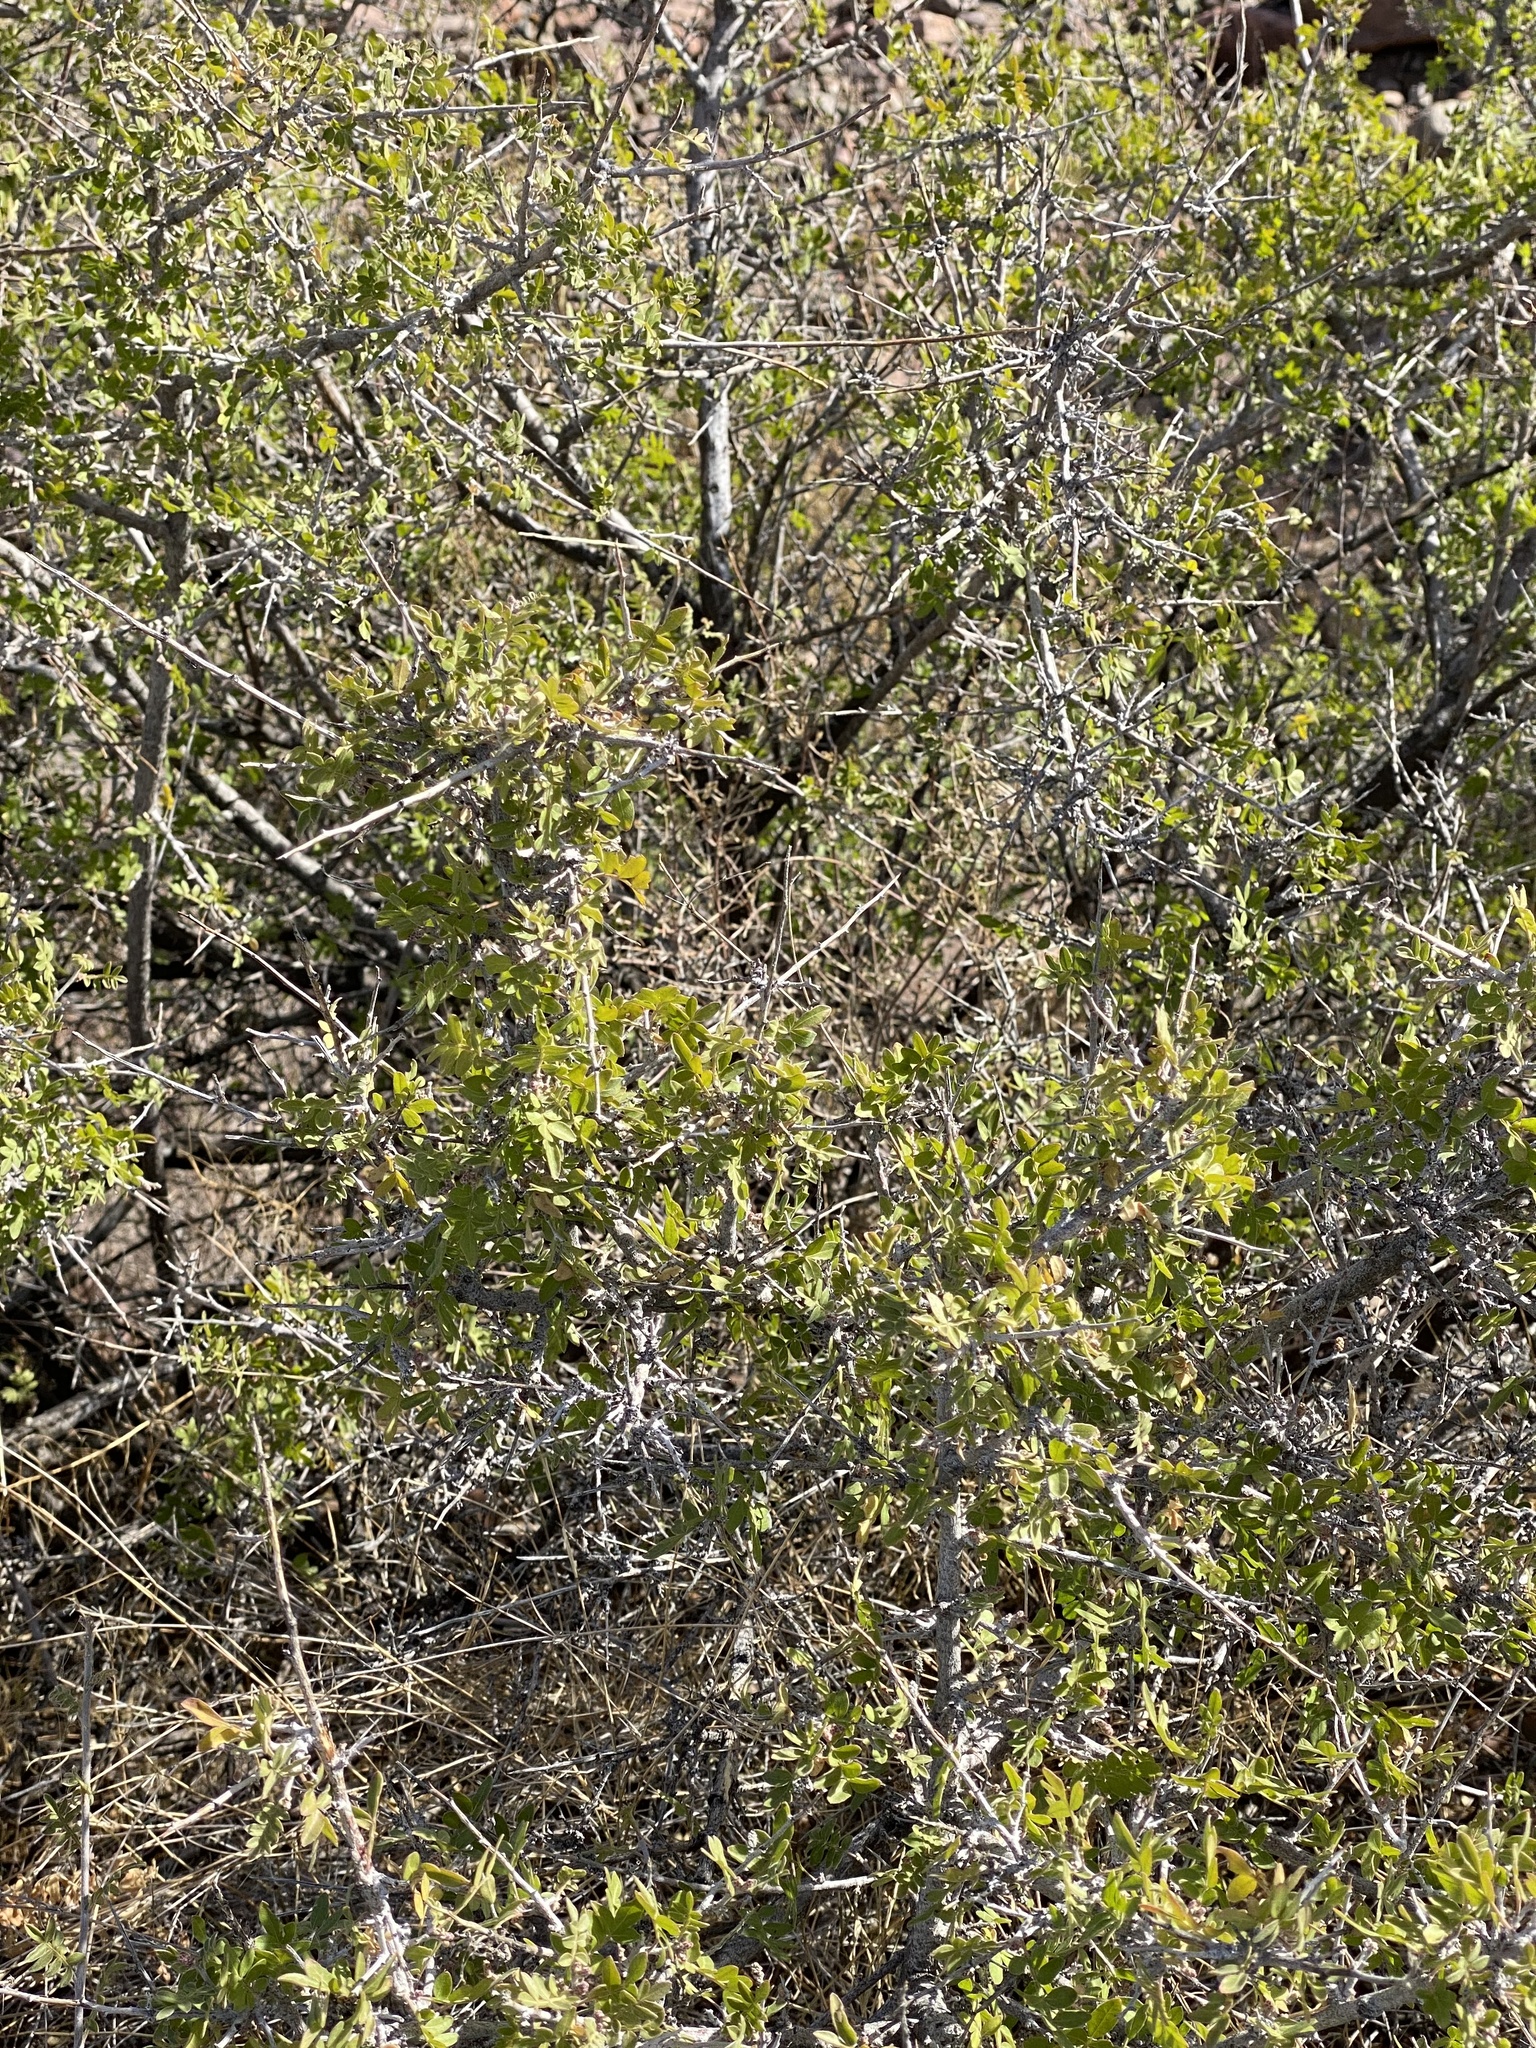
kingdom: Plantae
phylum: Tracheophyta
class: Magnoliopsida
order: Sapindales
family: Anacardiaceae
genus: Rhus
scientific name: Rhus microphylla
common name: Desert sumac
